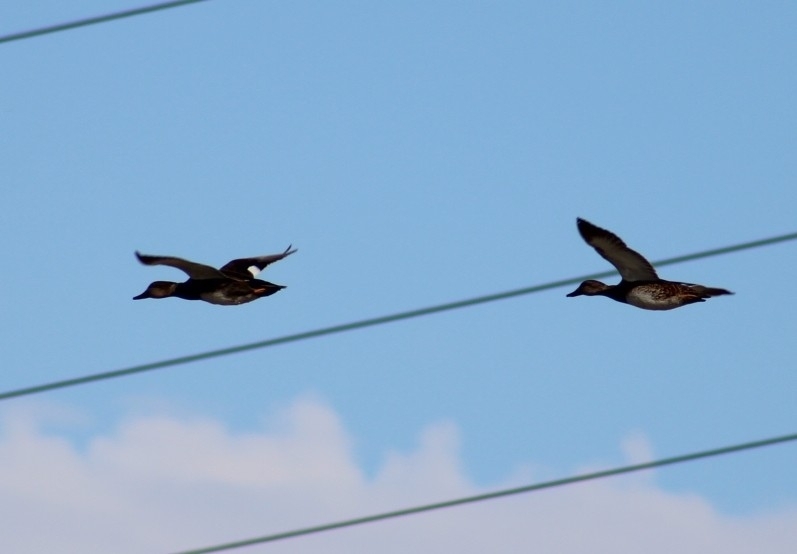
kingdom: Animalia
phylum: Chordata
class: Aves
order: Anseriformes
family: Anatidae
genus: Mareca
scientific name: Mareca strepera
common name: Gadwall
